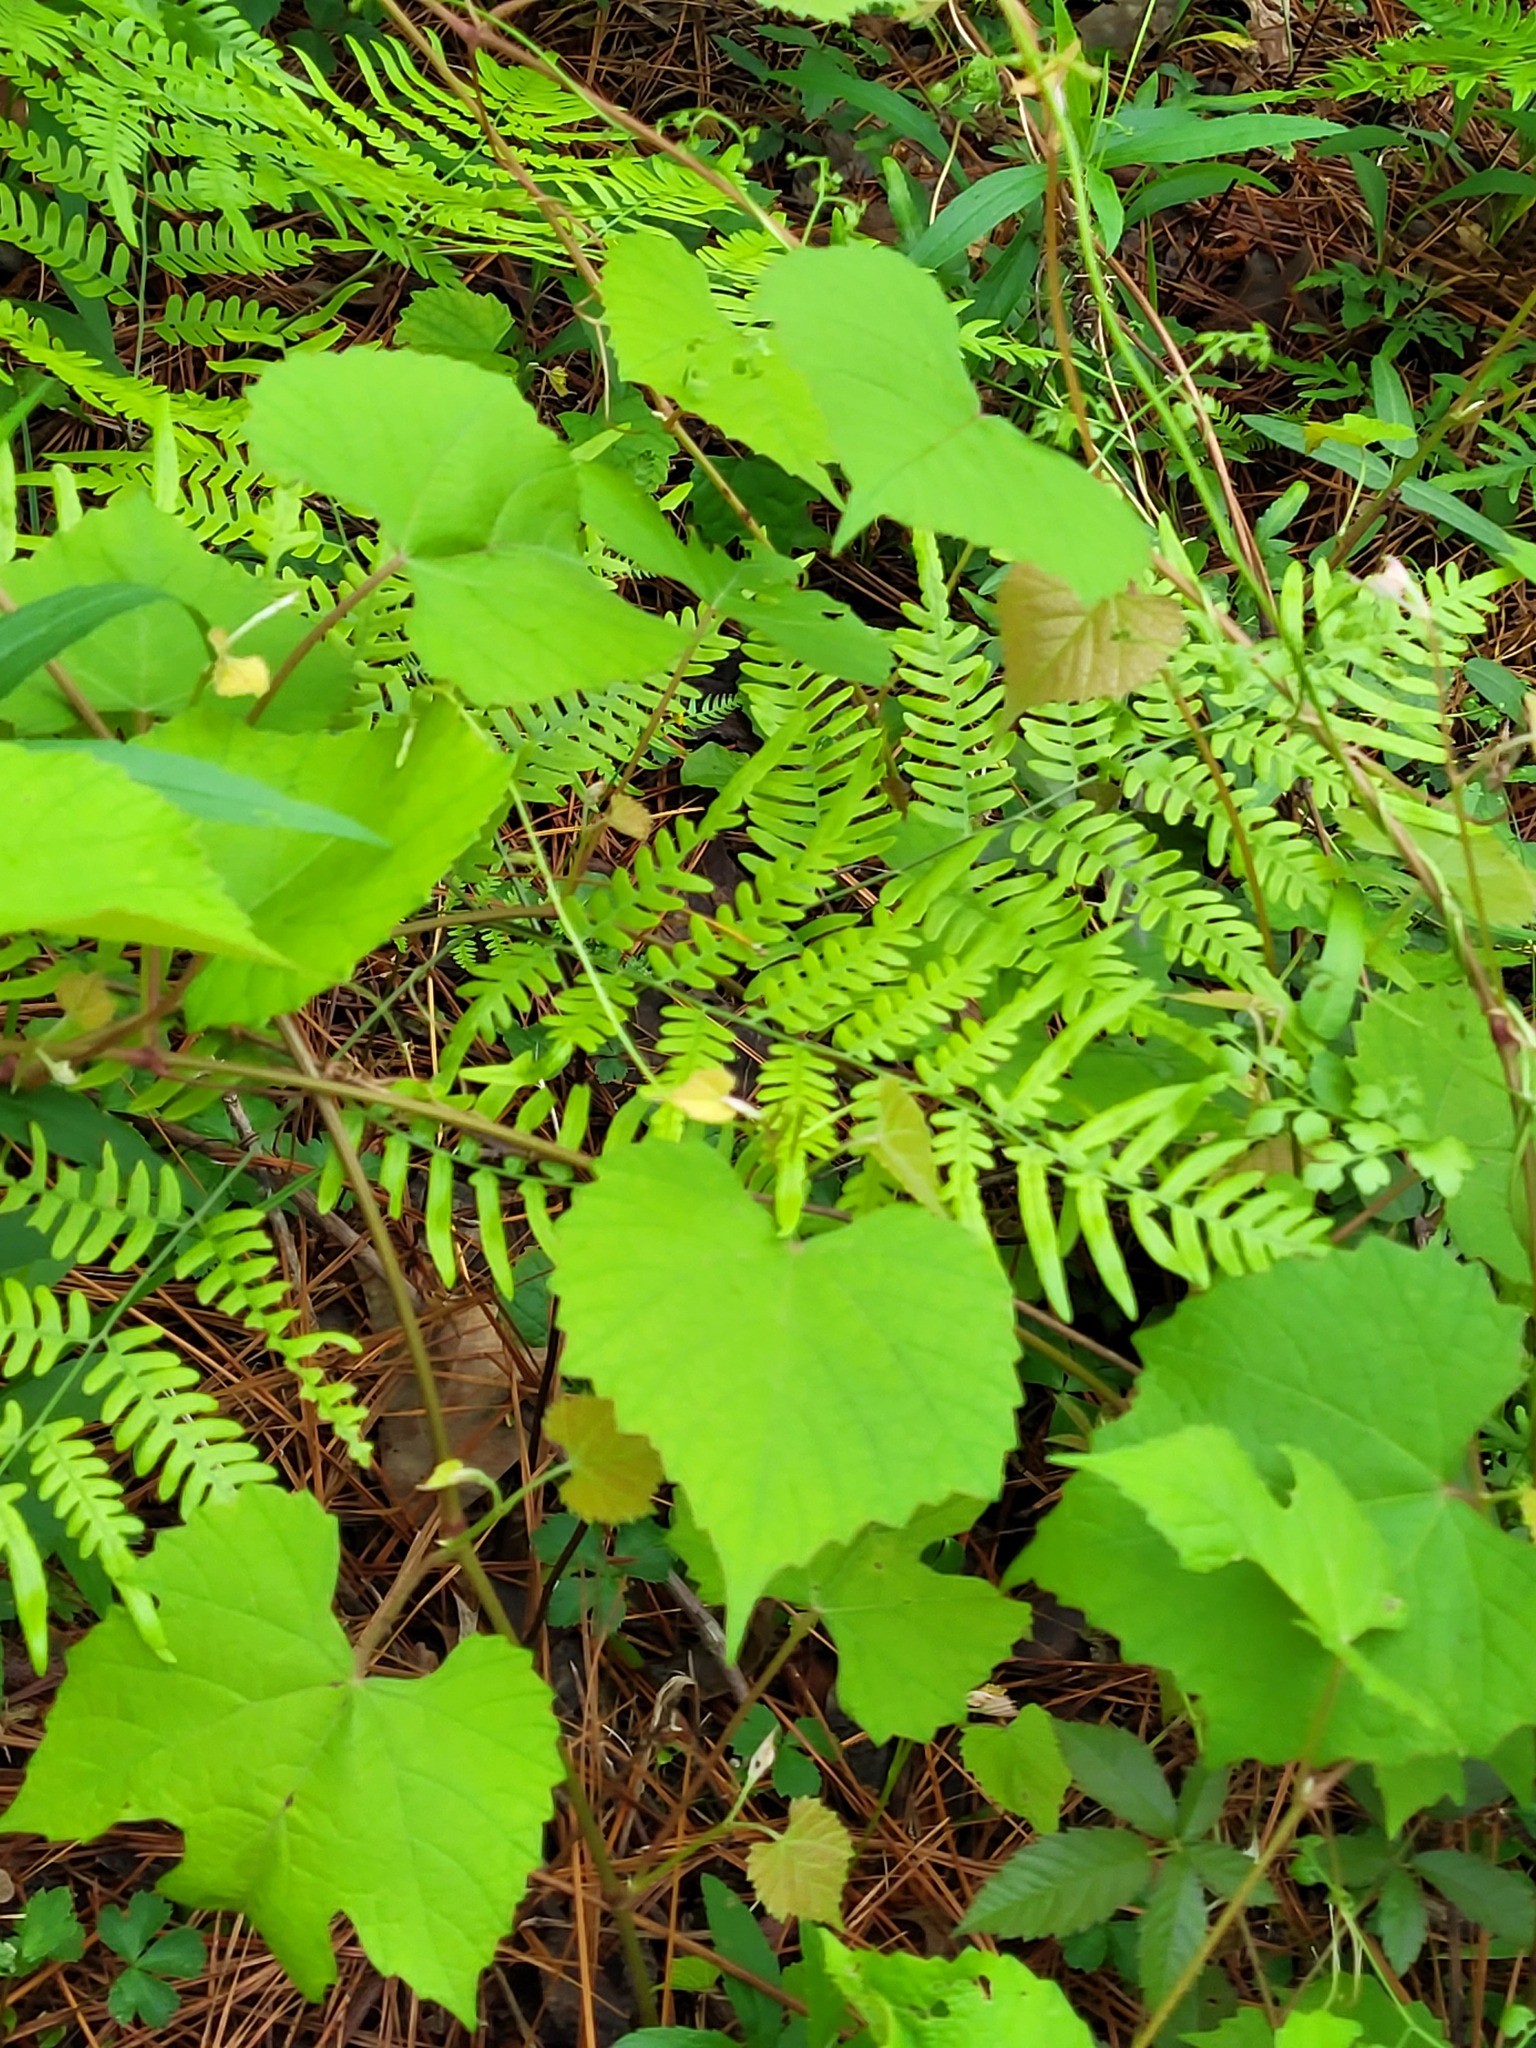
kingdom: Plantae
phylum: Tracheophyta
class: Magnoliopsida
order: Vitales
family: Vitaceae
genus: Vitis
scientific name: Vitis rotundifolia
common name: Muscadine grape
